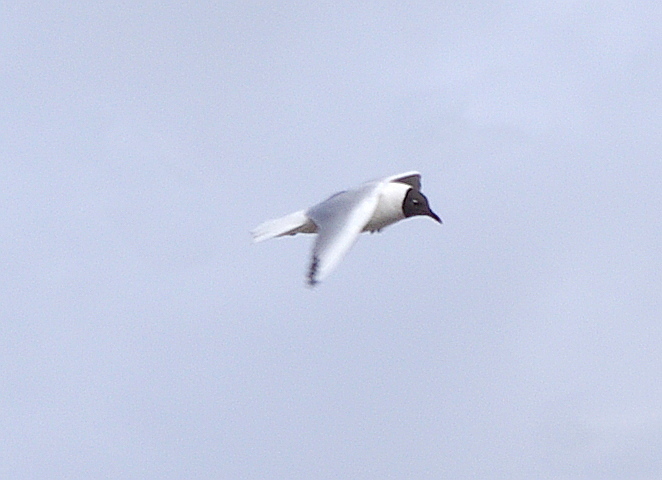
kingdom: Animalia
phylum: Chordata
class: Aves
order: Charadriiformes
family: Laridae
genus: Chroicocephalus
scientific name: Chroicocephalus ridibundus
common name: Black-headed gull
